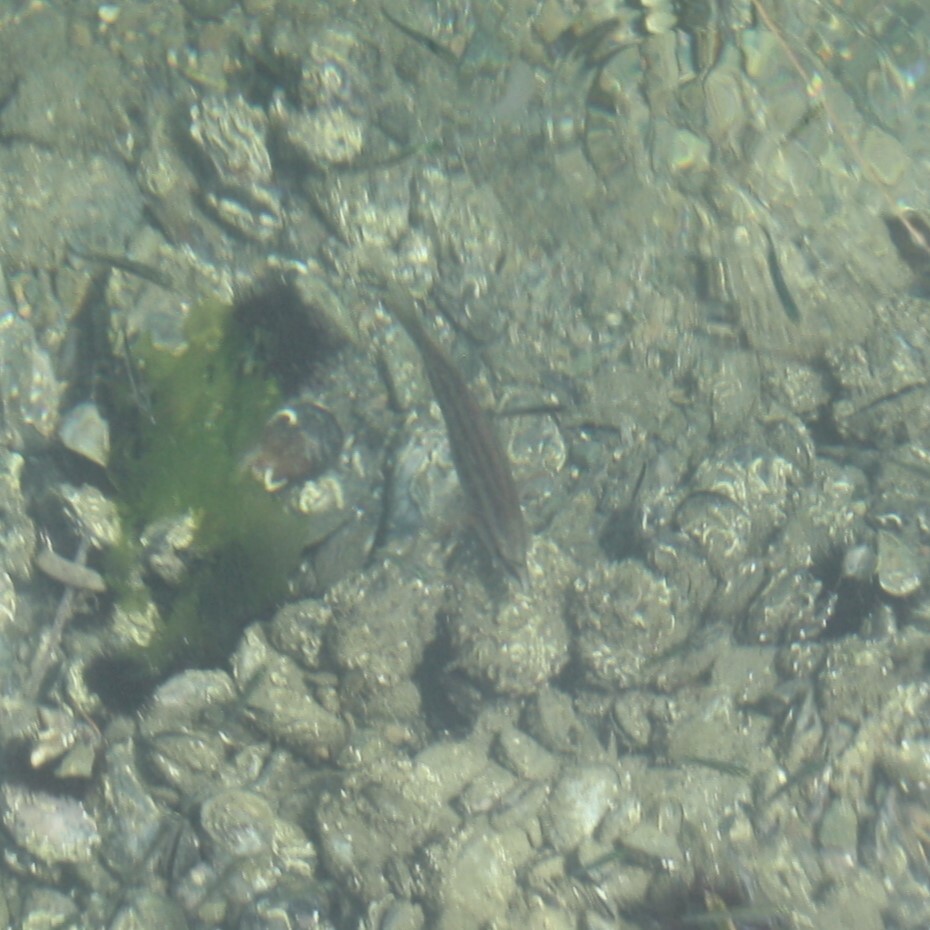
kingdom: Animalia
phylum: Chordata
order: Perciformes
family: Labridae
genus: Symphodus
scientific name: Symphodus tinca
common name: Peacock wrasse
